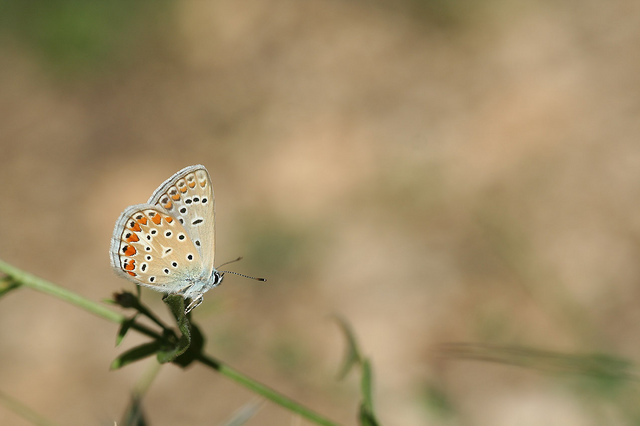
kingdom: Animalia
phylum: Arthropoda
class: Insecta
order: Lepidoptera
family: Lycaenidae
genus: Polyommatus
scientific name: Polyommatus icarus
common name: Common blue
